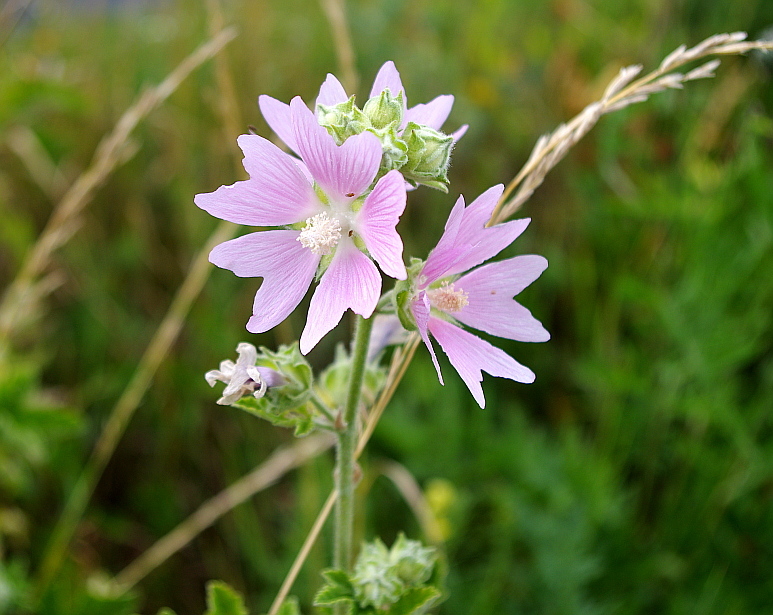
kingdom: Plantae
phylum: Tracheophyta
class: Magnoliopsida
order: Malvales
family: Malvaceae
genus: Malva
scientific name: Malva thuringiaca
